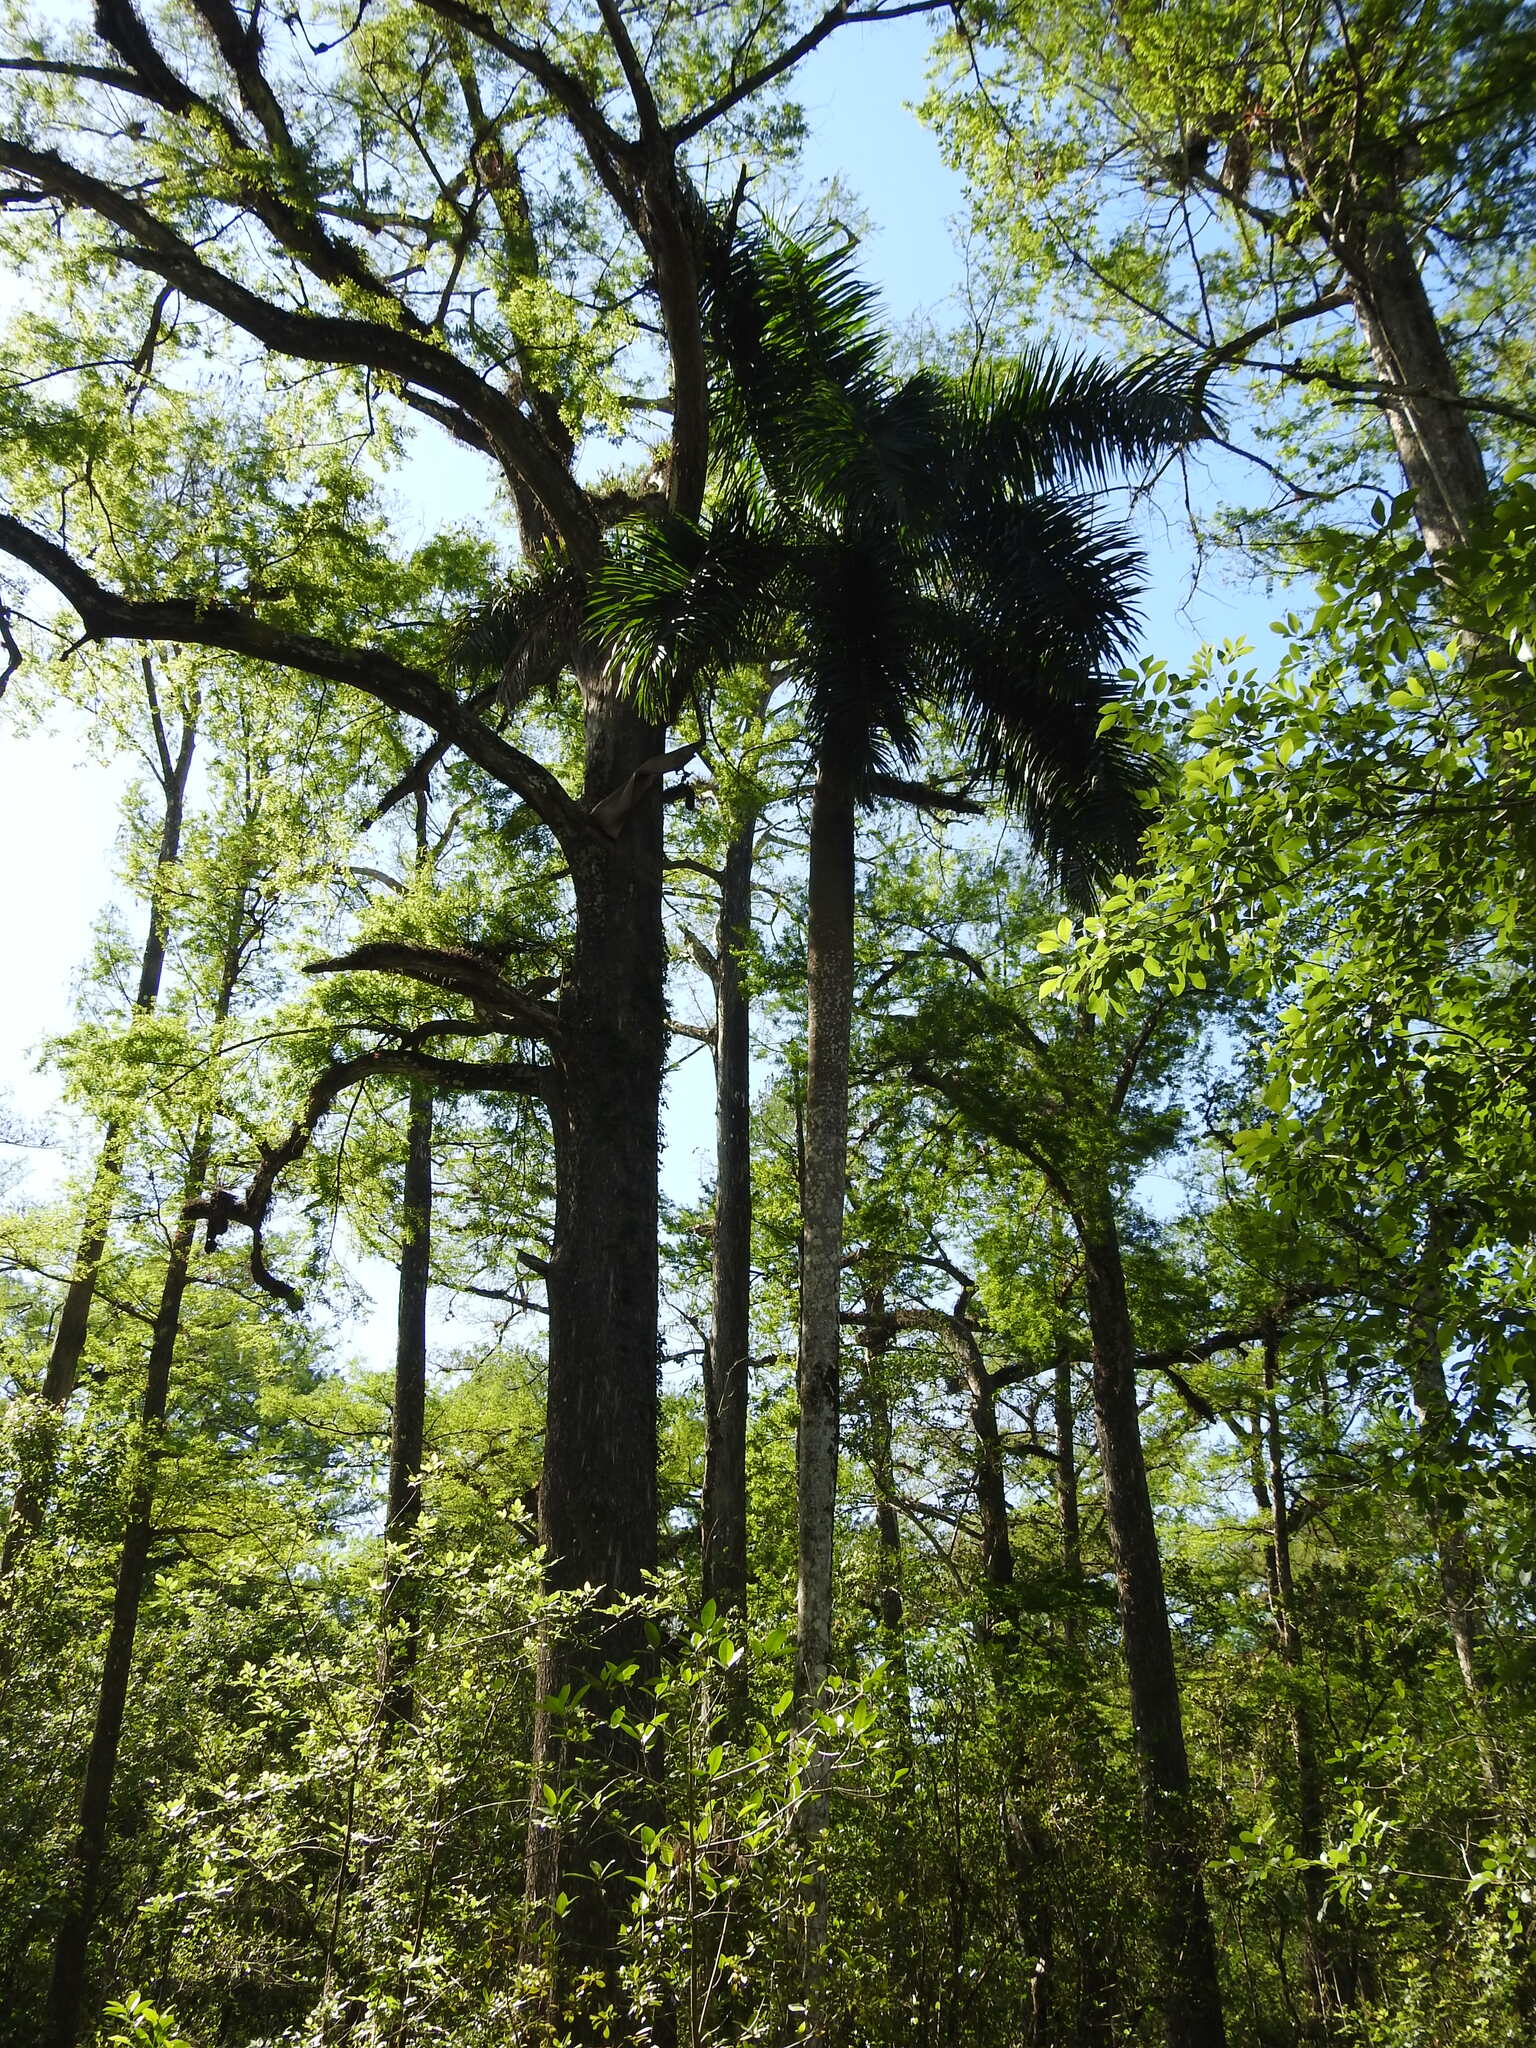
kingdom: Plantae
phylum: Tracheophyta
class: Liliopsida
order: Arecales
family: Arecaceae
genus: Roystonea
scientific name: Roystonea regia
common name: Florida royal palm
